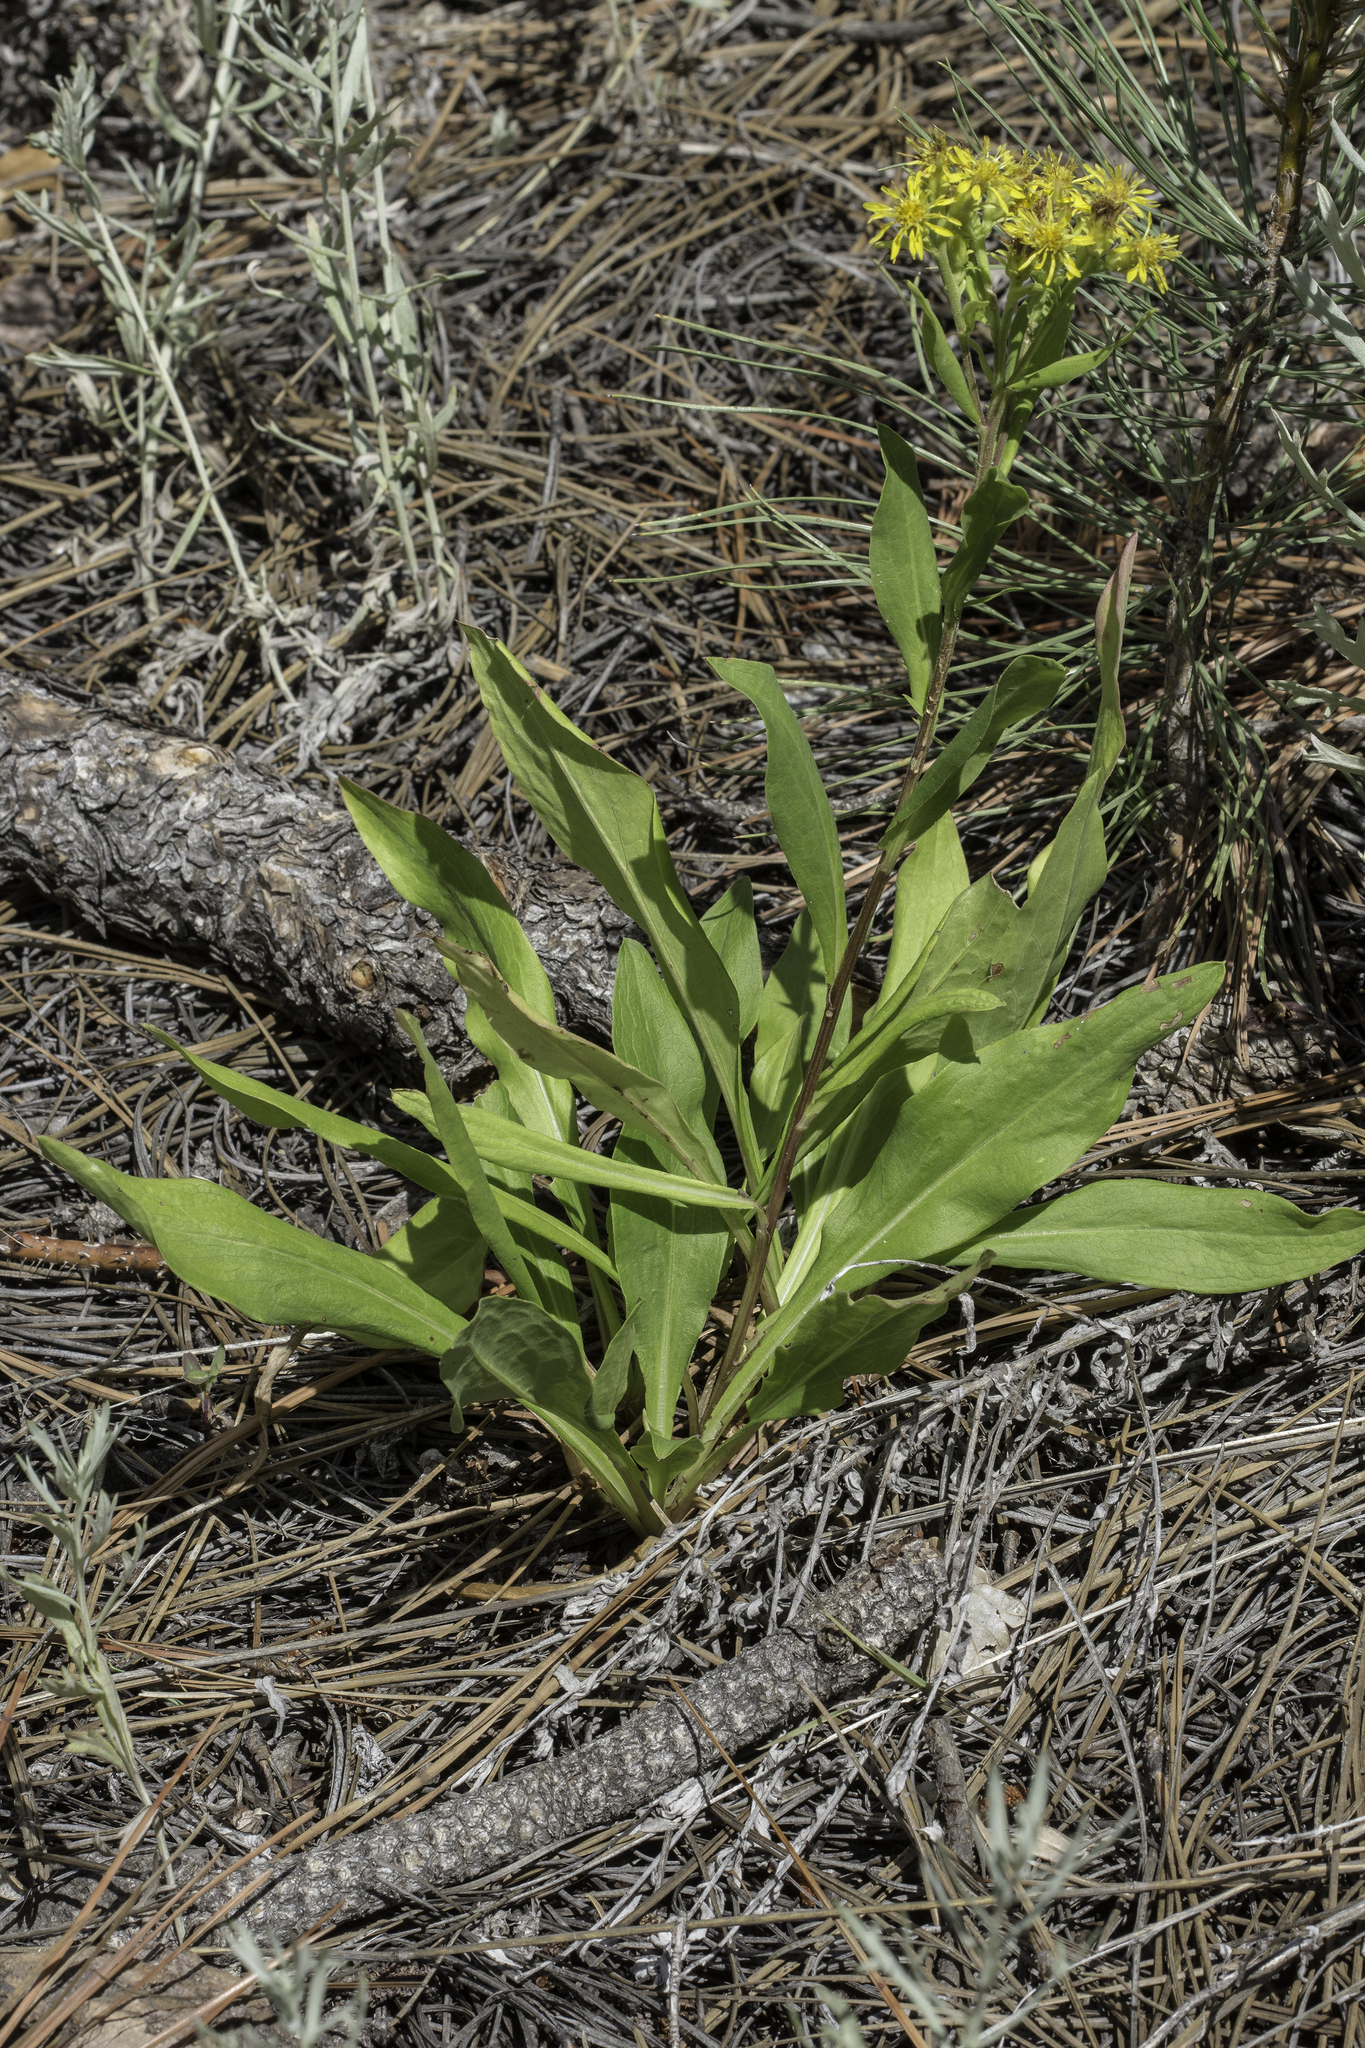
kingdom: Plantae
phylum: Tracheophyta
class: Magnoliopsida
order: Asterales
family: Asteraceae
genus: Oreochrysum
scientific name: Oreochrysum parryi
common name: Parry's goldenweed
